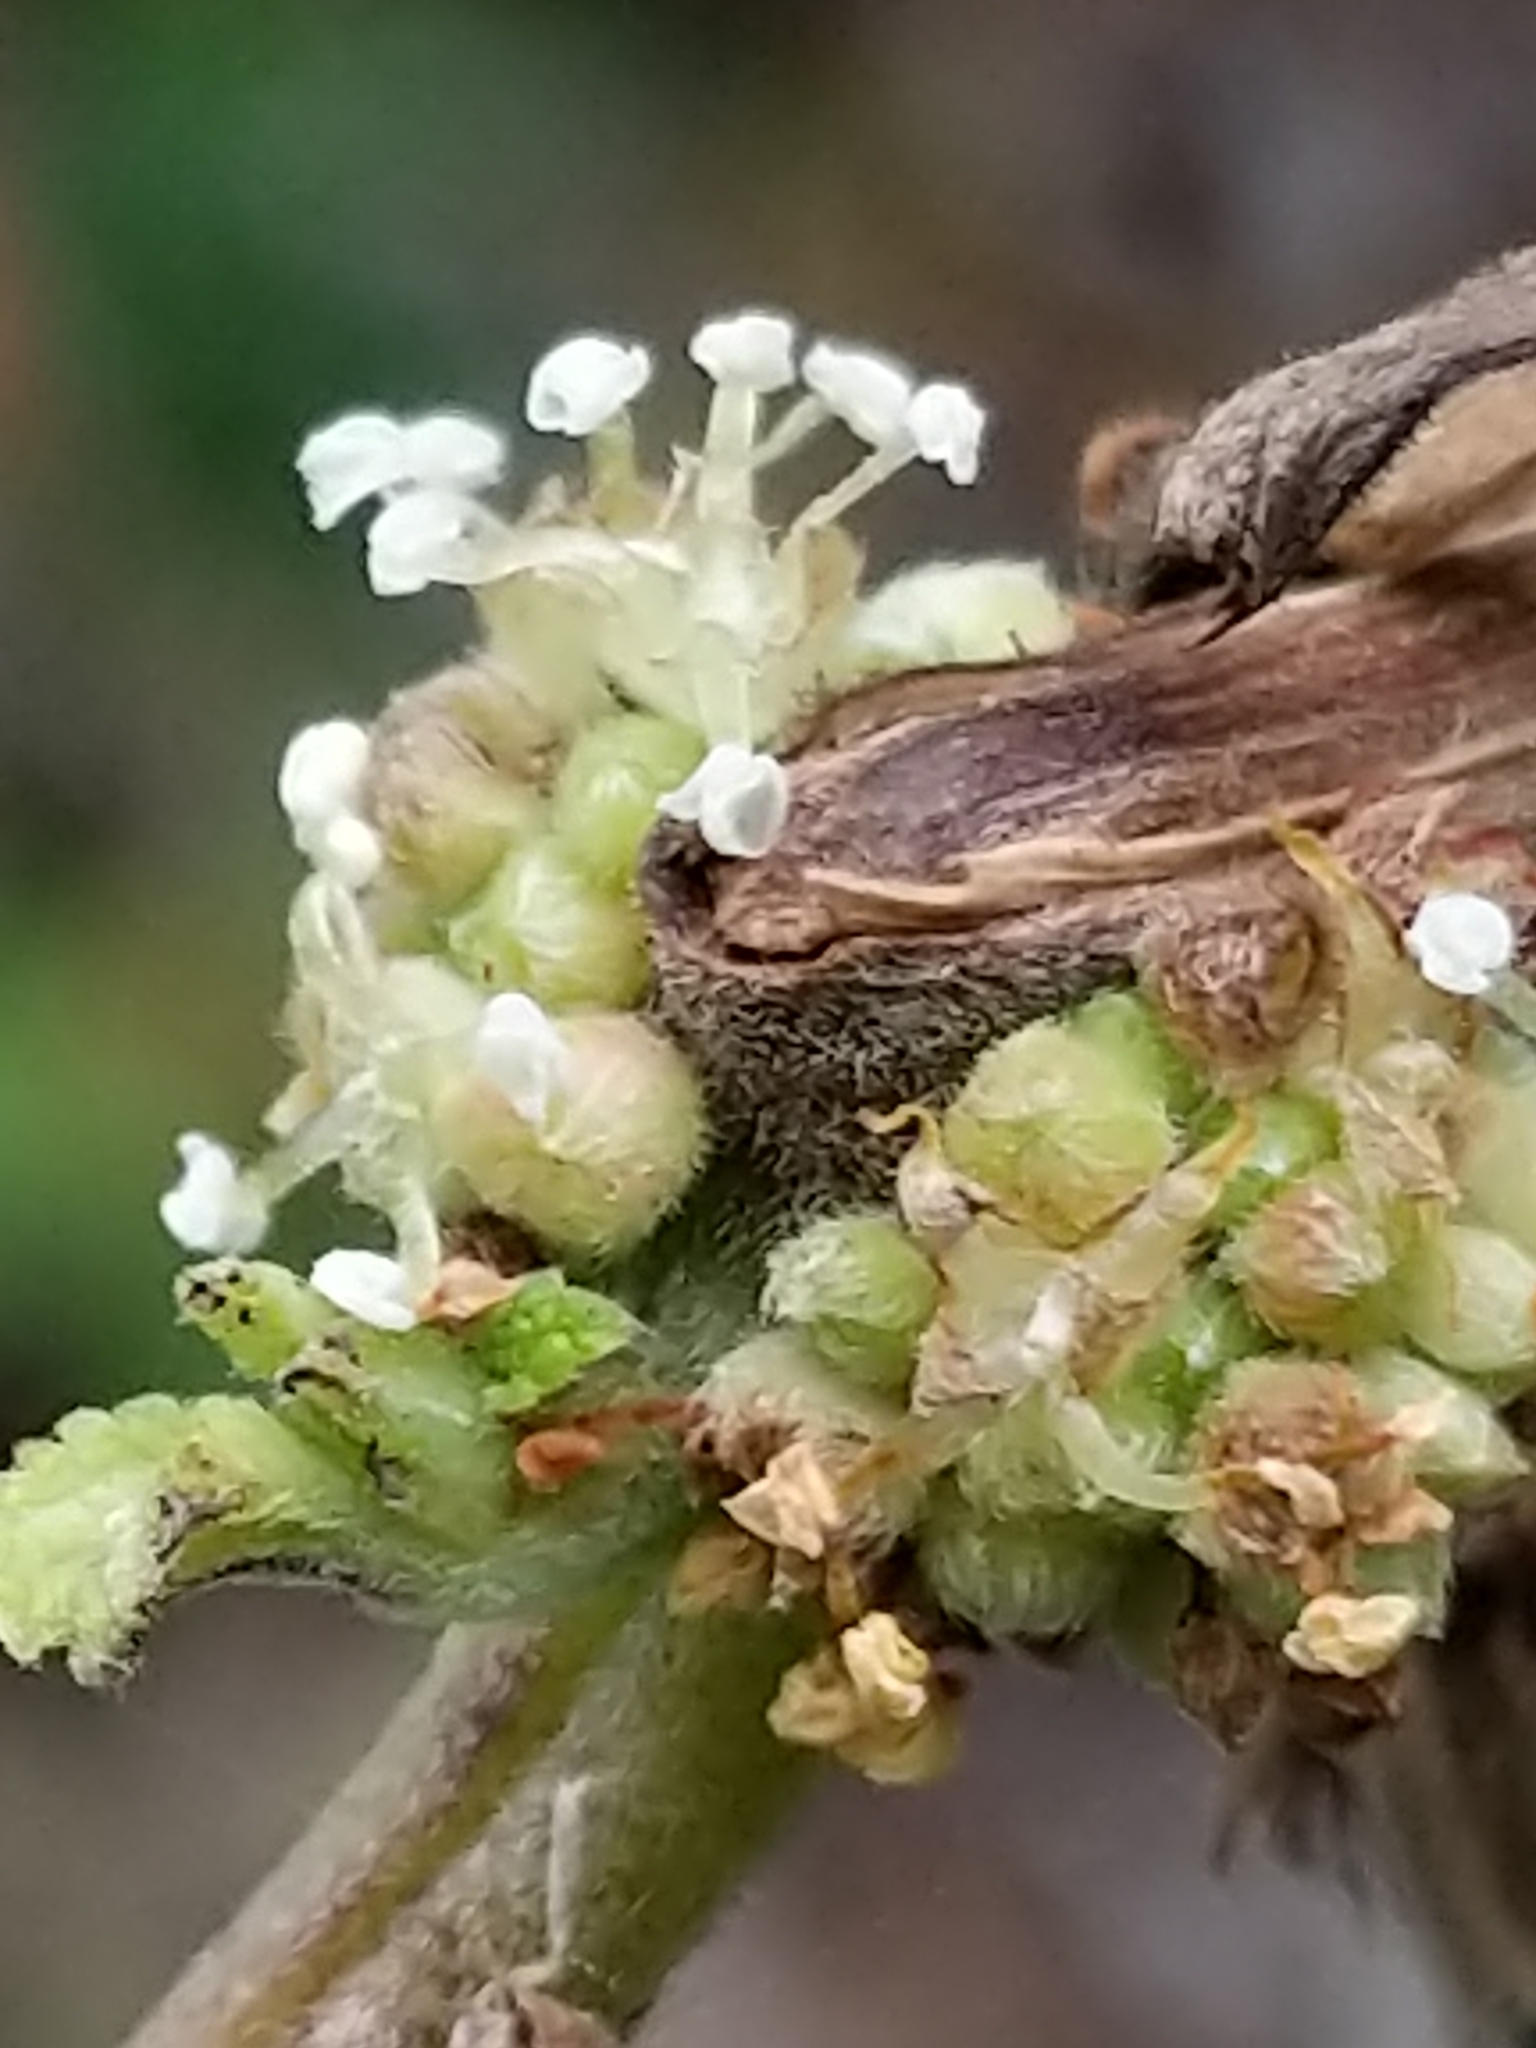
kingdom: Plantae
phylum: Tracheophyta
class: Magnoliopsida
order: Rosales
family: Urticaceae
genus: Pipturus
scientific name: Pipturus albidus
